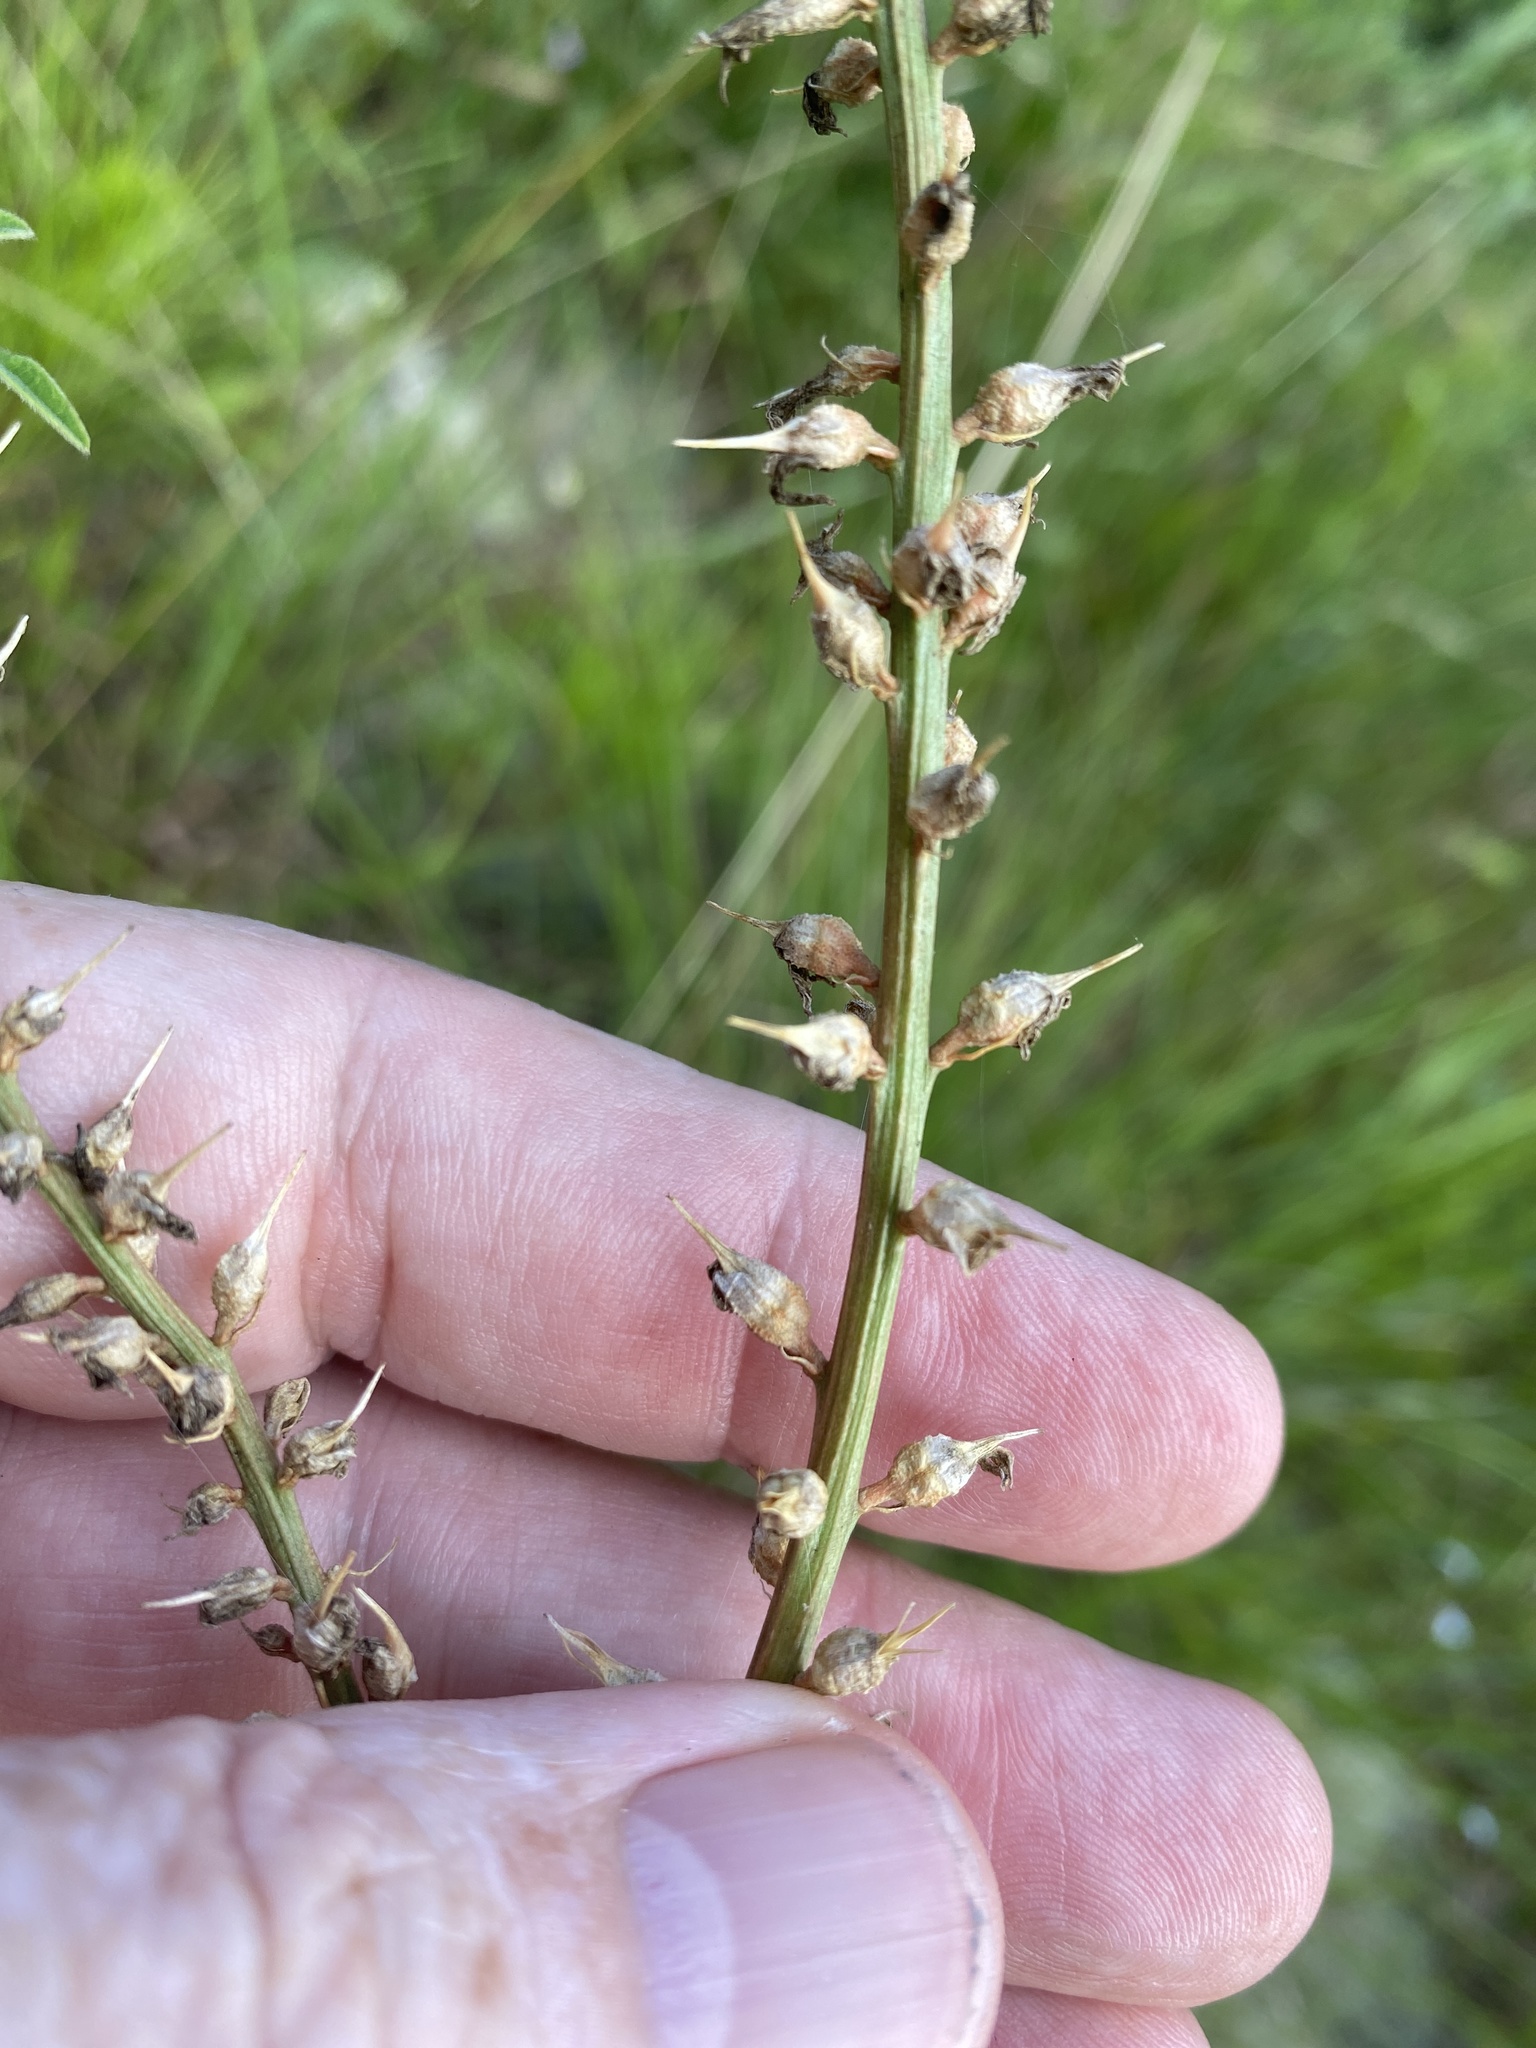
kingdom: Plantae
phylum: Tracheophyta
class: Liliopsida
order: Dioscoreales
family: Nartheciaceae
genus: Aletris
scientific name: Aletris farinosa
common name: Colicroot
